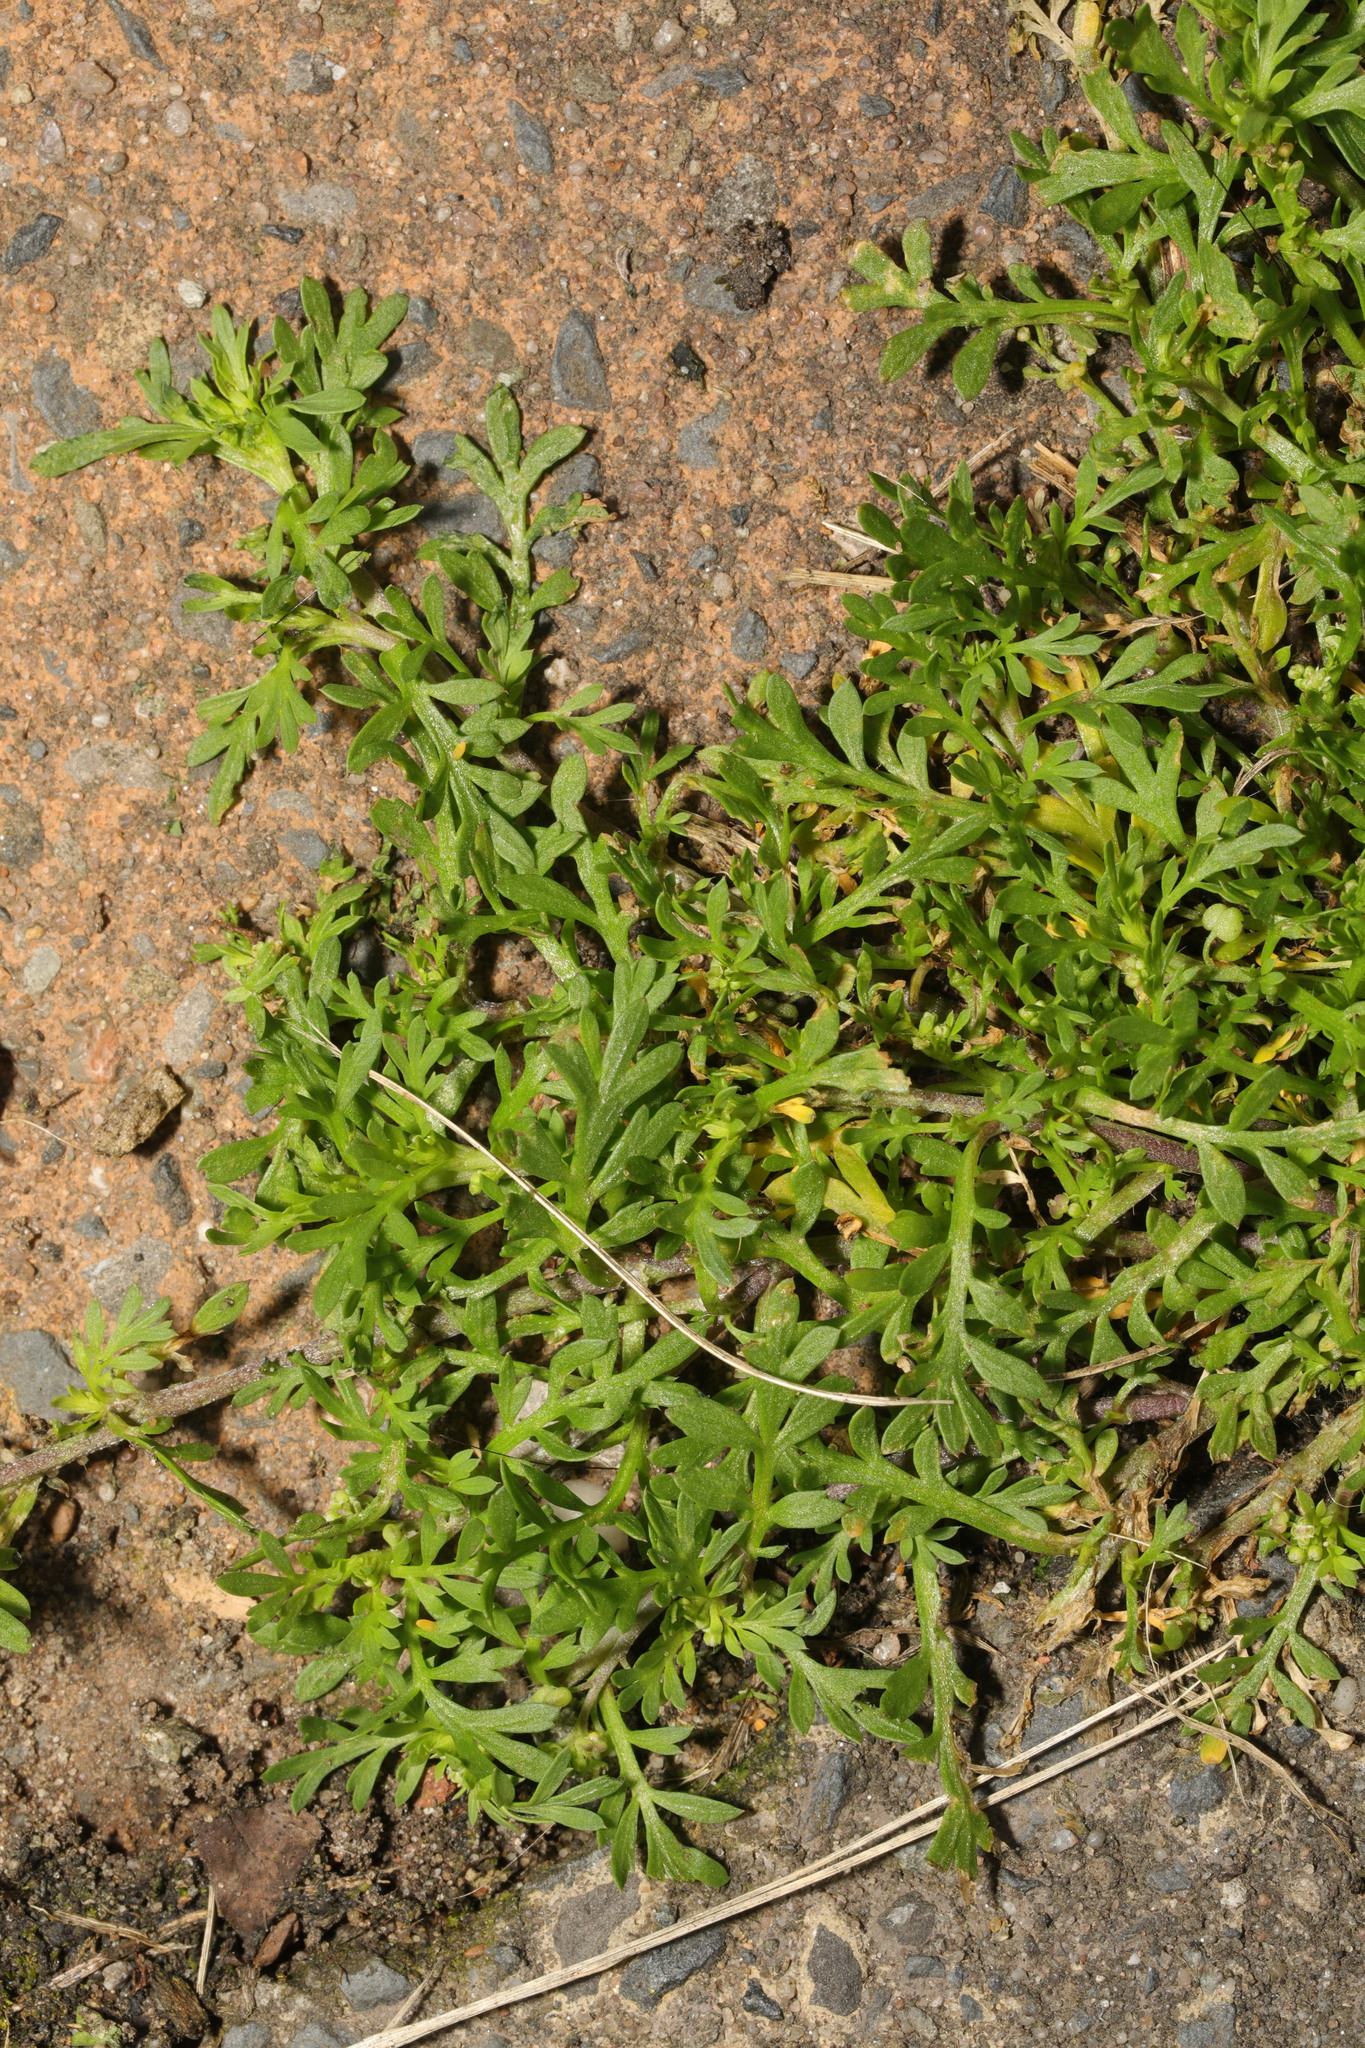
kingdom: Plantae
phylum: Tracheophyta
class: Magnoliopsida
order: Brassicales
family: Brassicaceae
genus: Lepidium
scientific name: Lepidium didymum
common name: Lesser swinecress
